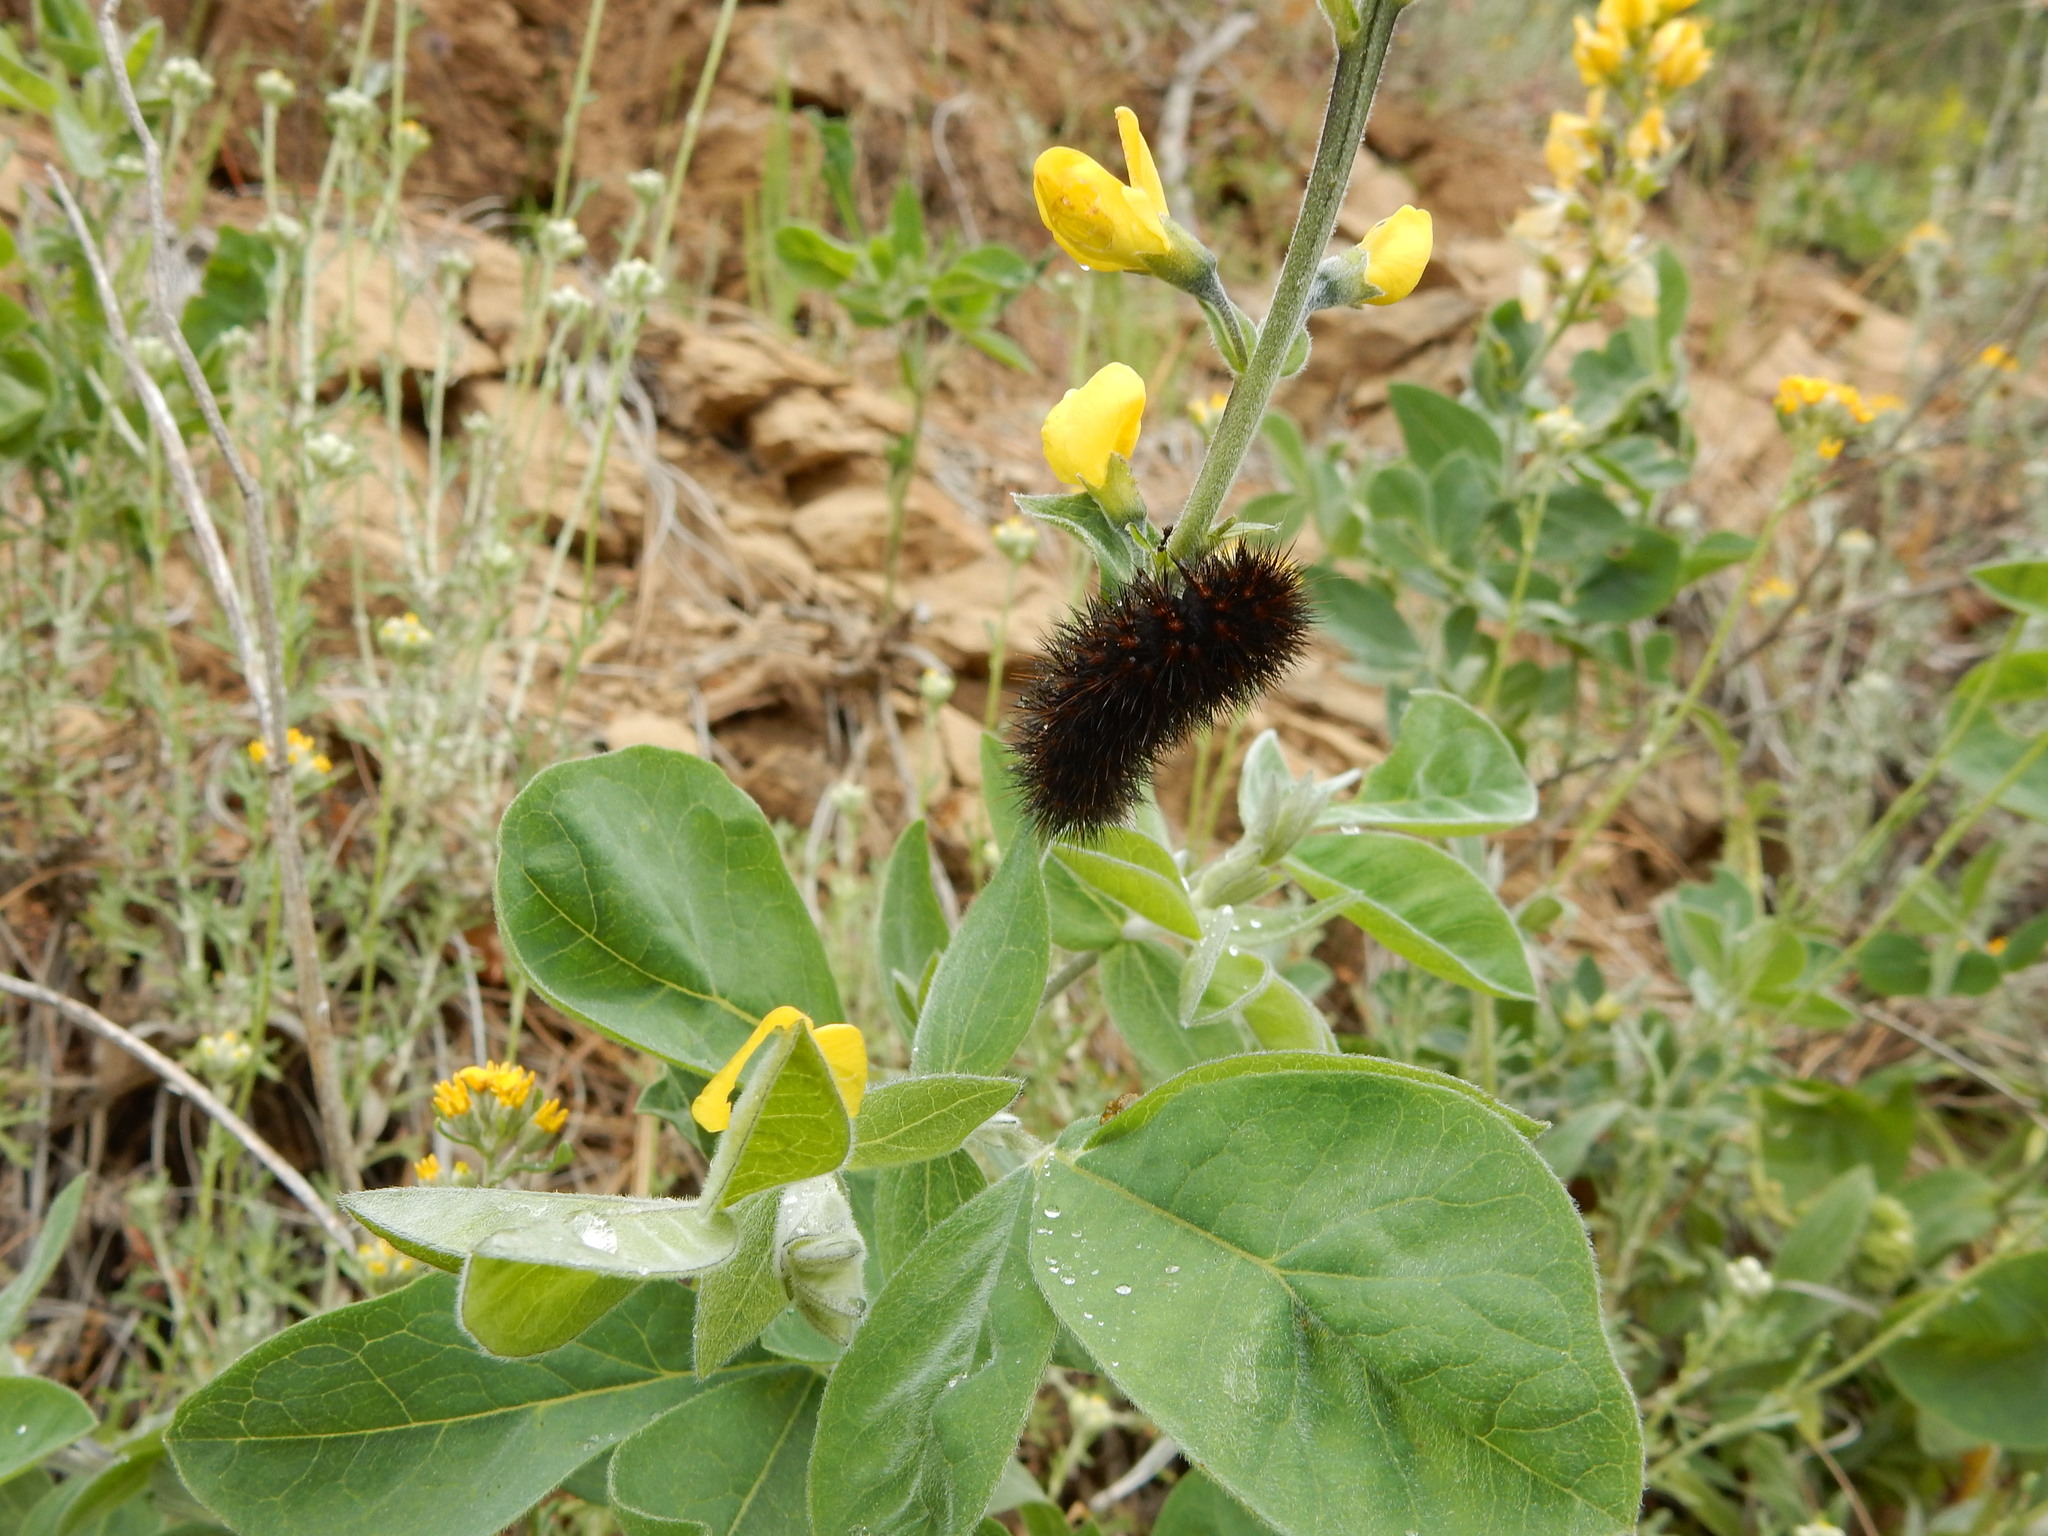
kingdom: Plantae
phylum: Tracheophyta
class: Magnoliopsida
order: Fabales
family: Fabaceae
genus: Lotus
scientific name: Lotus corniculatus
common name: Common bird's-foot-trefoil
